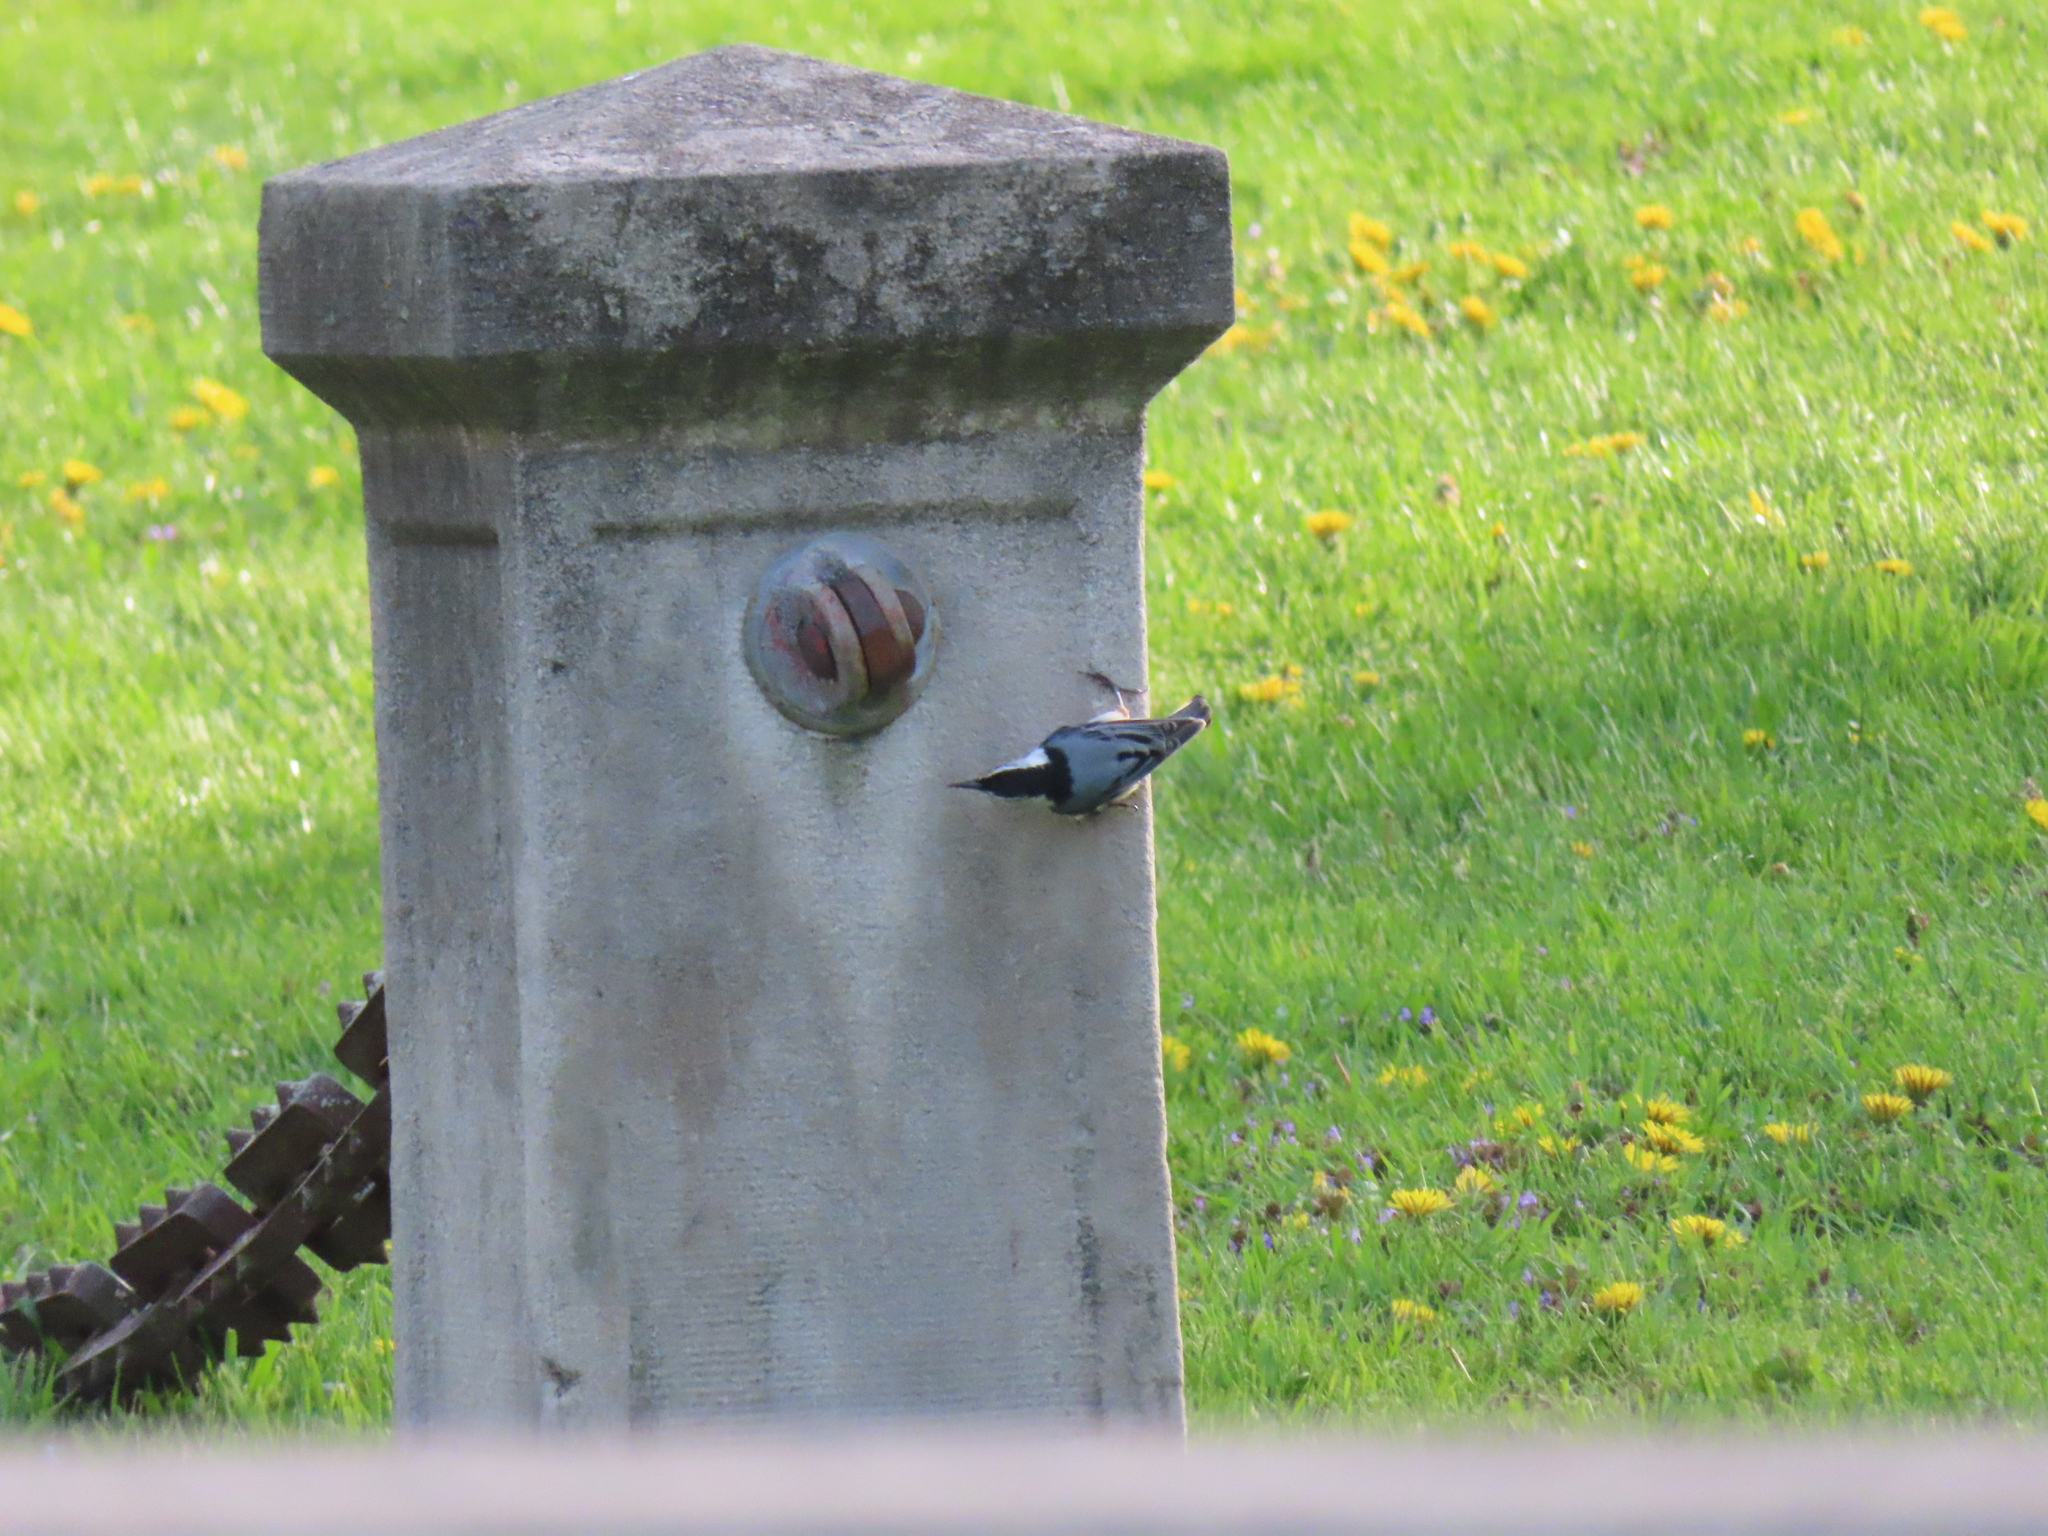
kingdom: Animalia
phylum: Chordata
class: Aves
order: Passeriformes
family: Sittidae
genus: Sitta
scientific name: Sitta carolinensis
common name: White-breasted nuthatch
